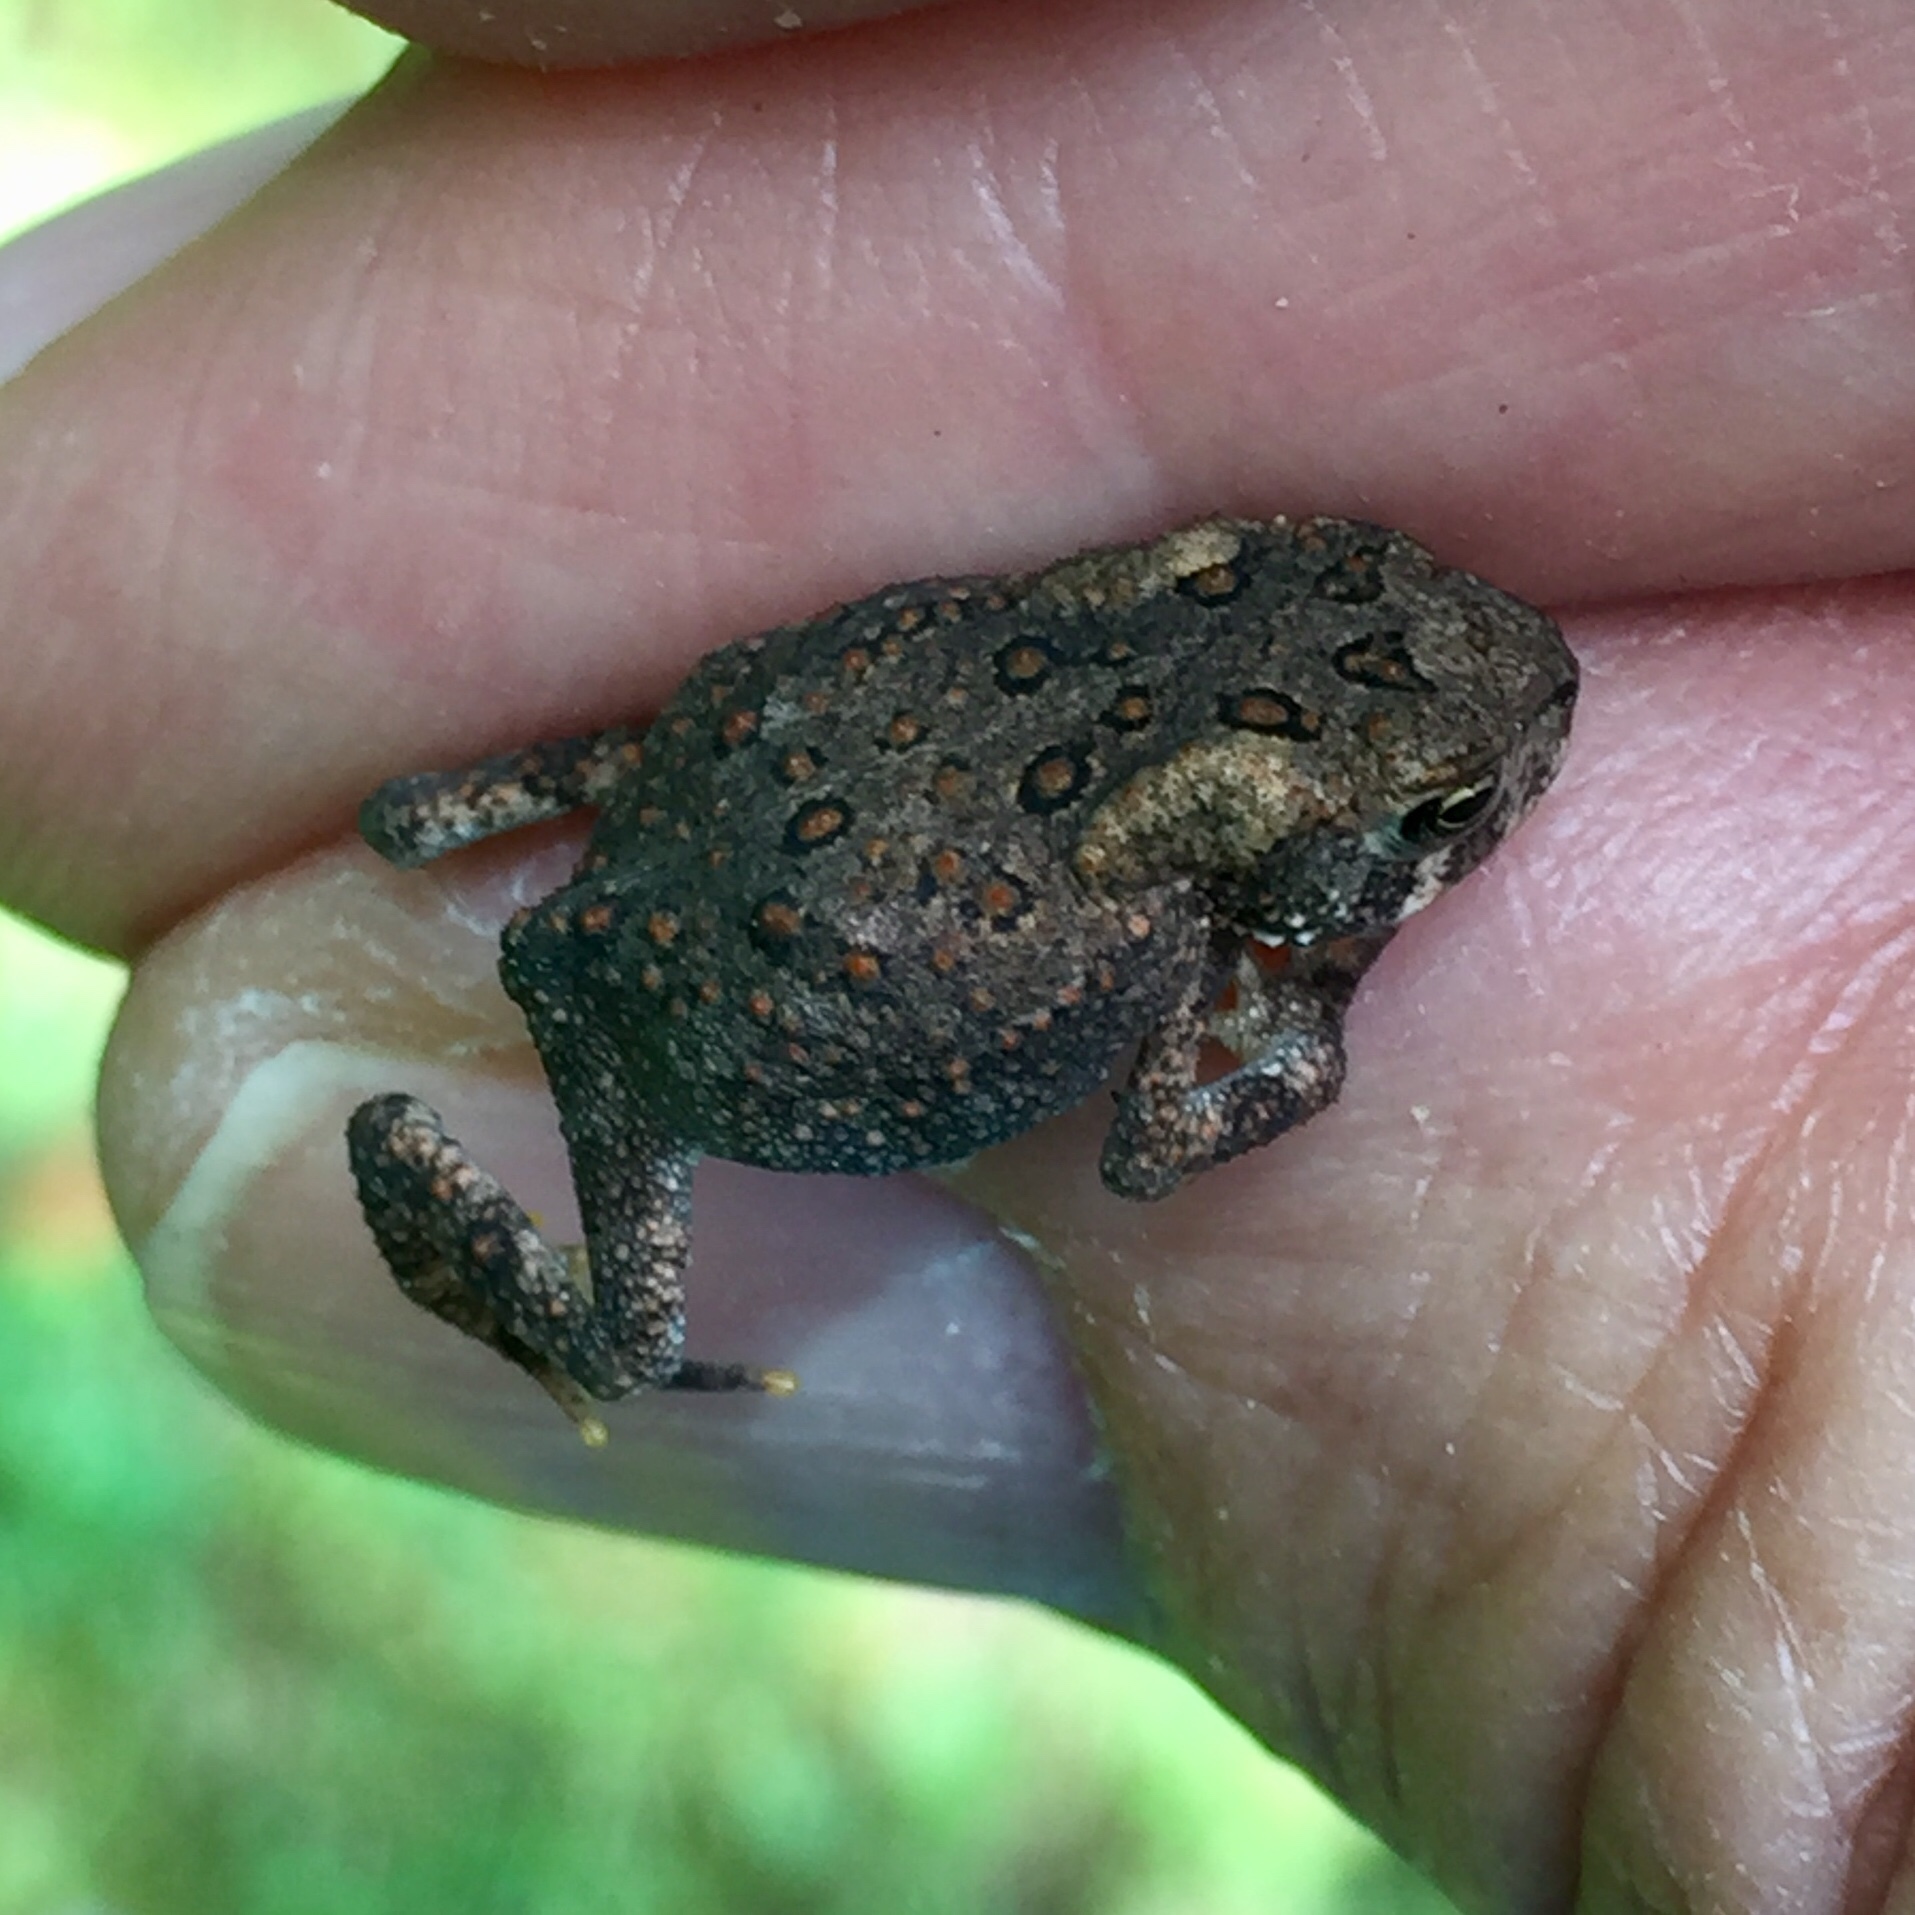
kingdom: Animalia
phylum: Chordata
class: Amphibia
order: Anura
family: Bufonidae
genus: Anaxyrus
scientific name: Anaxyrus americanus
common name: American toad
